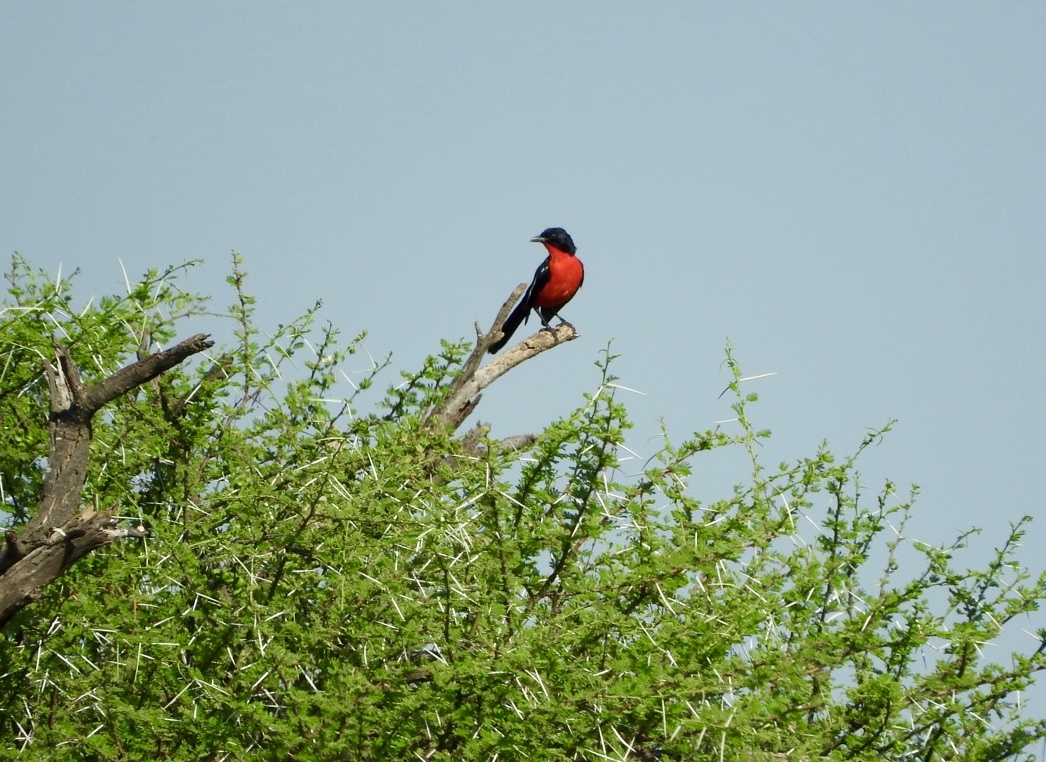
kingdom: Animalia
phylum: Chordata
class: Aves
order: Passeriformes
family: Malaconotidae
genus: Laniarius
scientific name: Laniarius atrococcineus
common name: Crimson-breasted shrike
